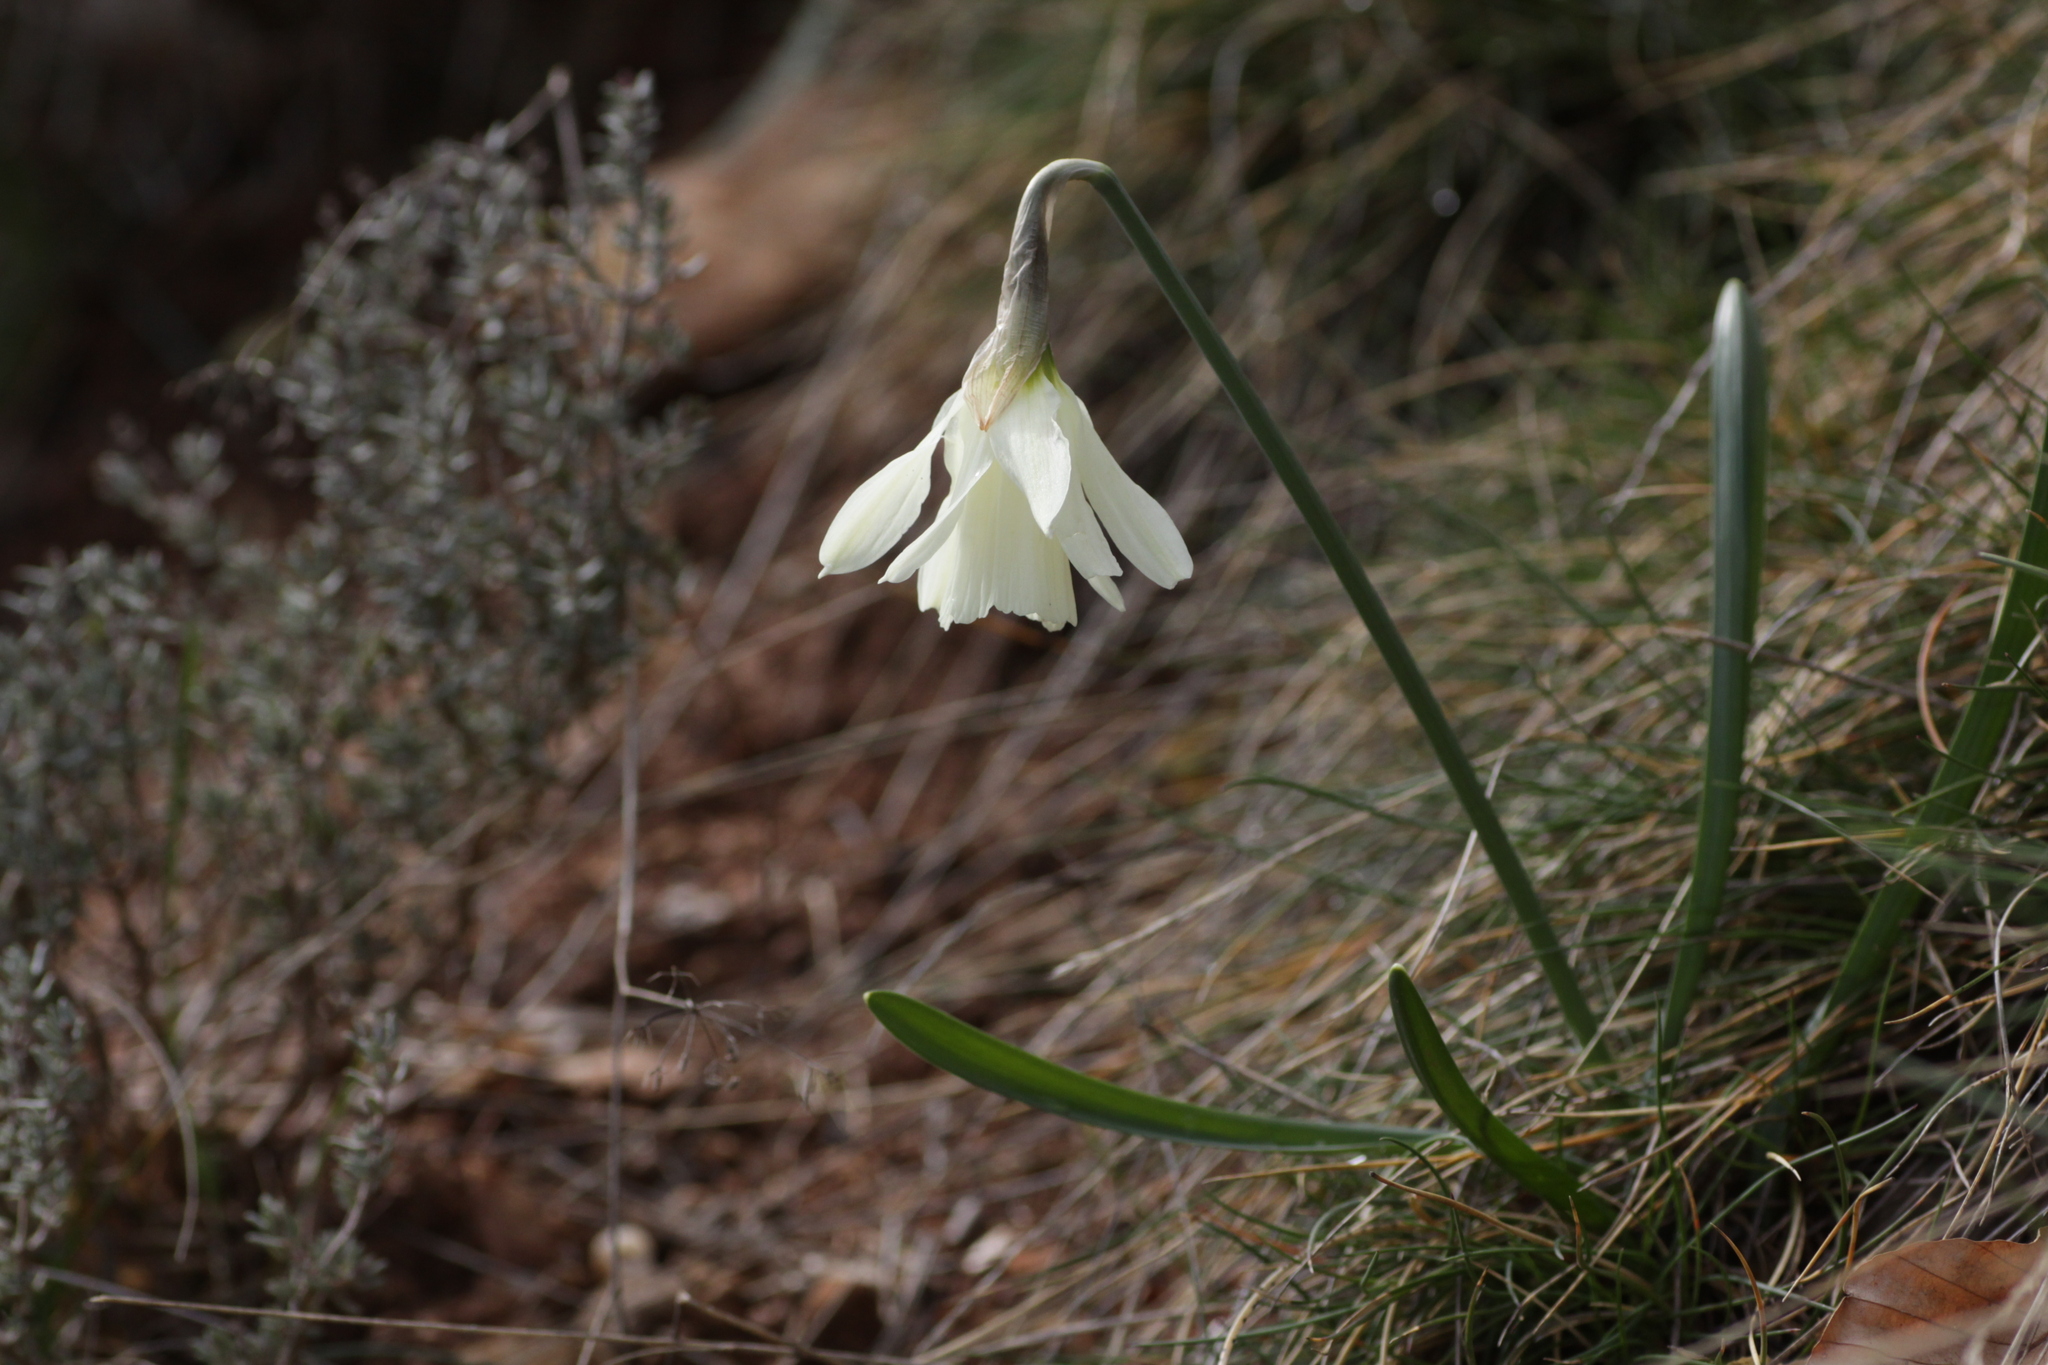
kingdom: Plantae
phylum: Tracheophyta
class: Liliopsida
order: Asparagales
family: Amaryllidaceae
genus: Narcissus
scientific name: Narcissus moschatus
